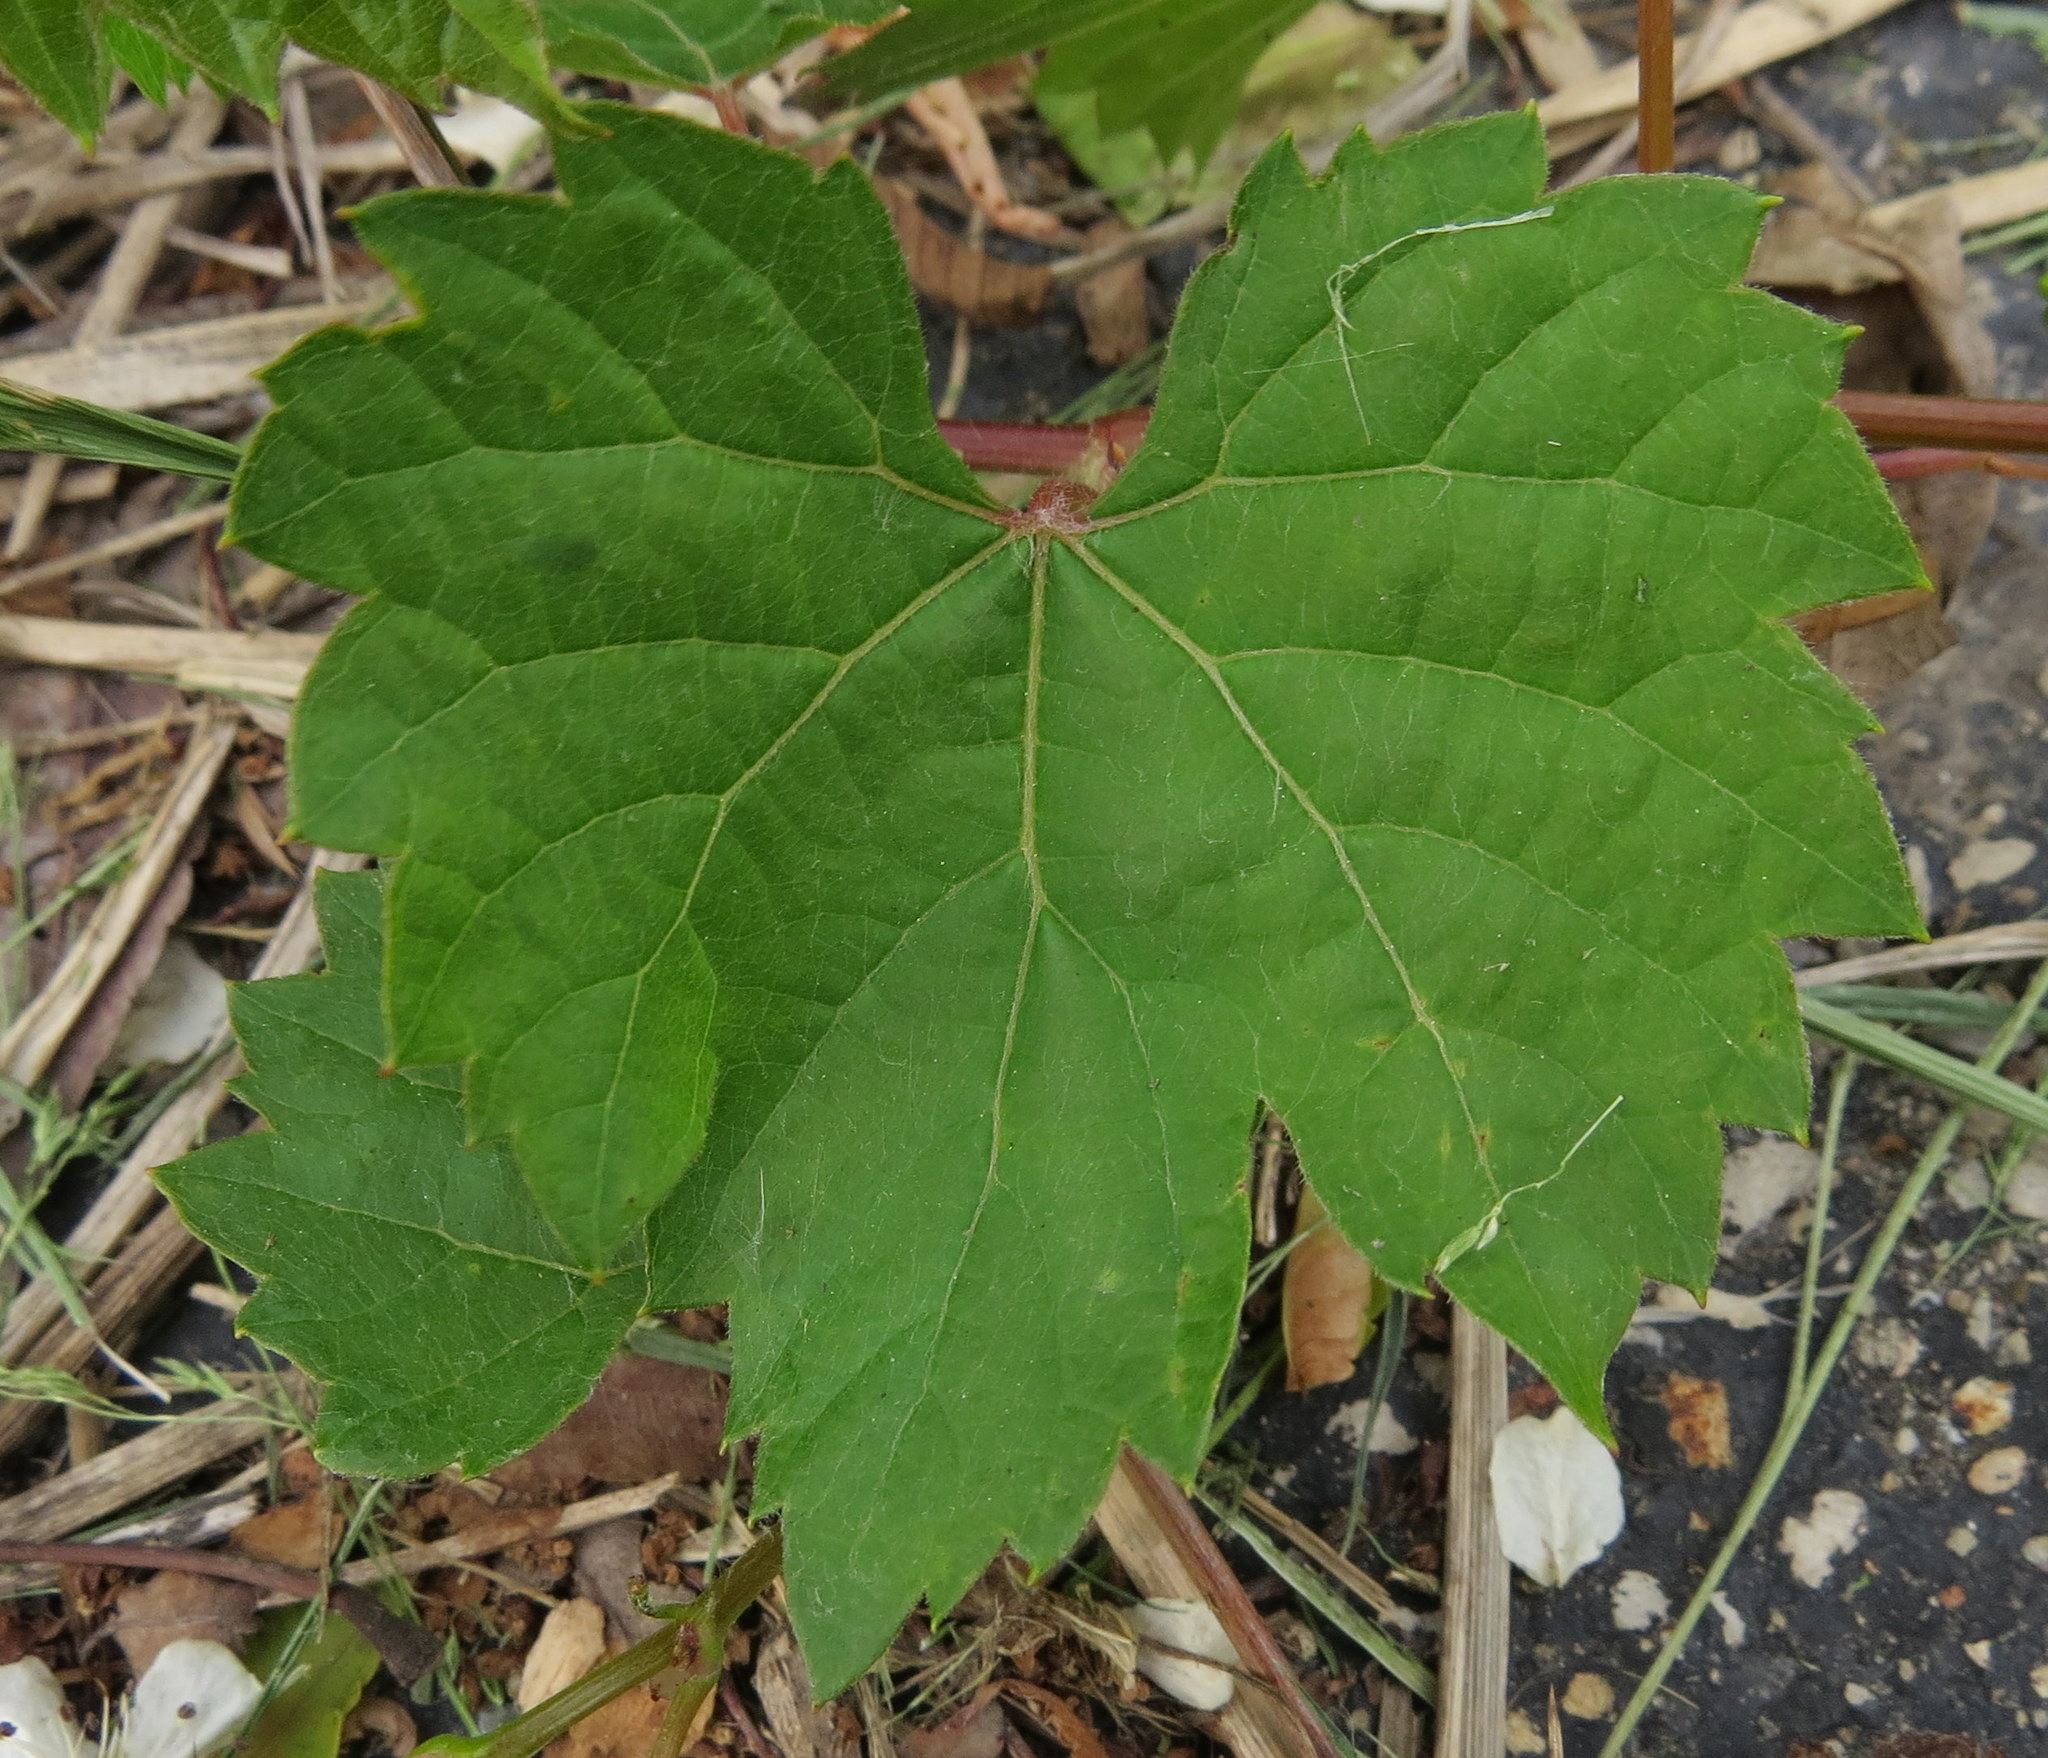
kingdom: Plantae
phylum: Tracheophyta
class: Magnoliopsida
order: Vitales
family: Vitaceae
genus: Vitis
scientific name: Vitis riparia
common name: Frost grape
